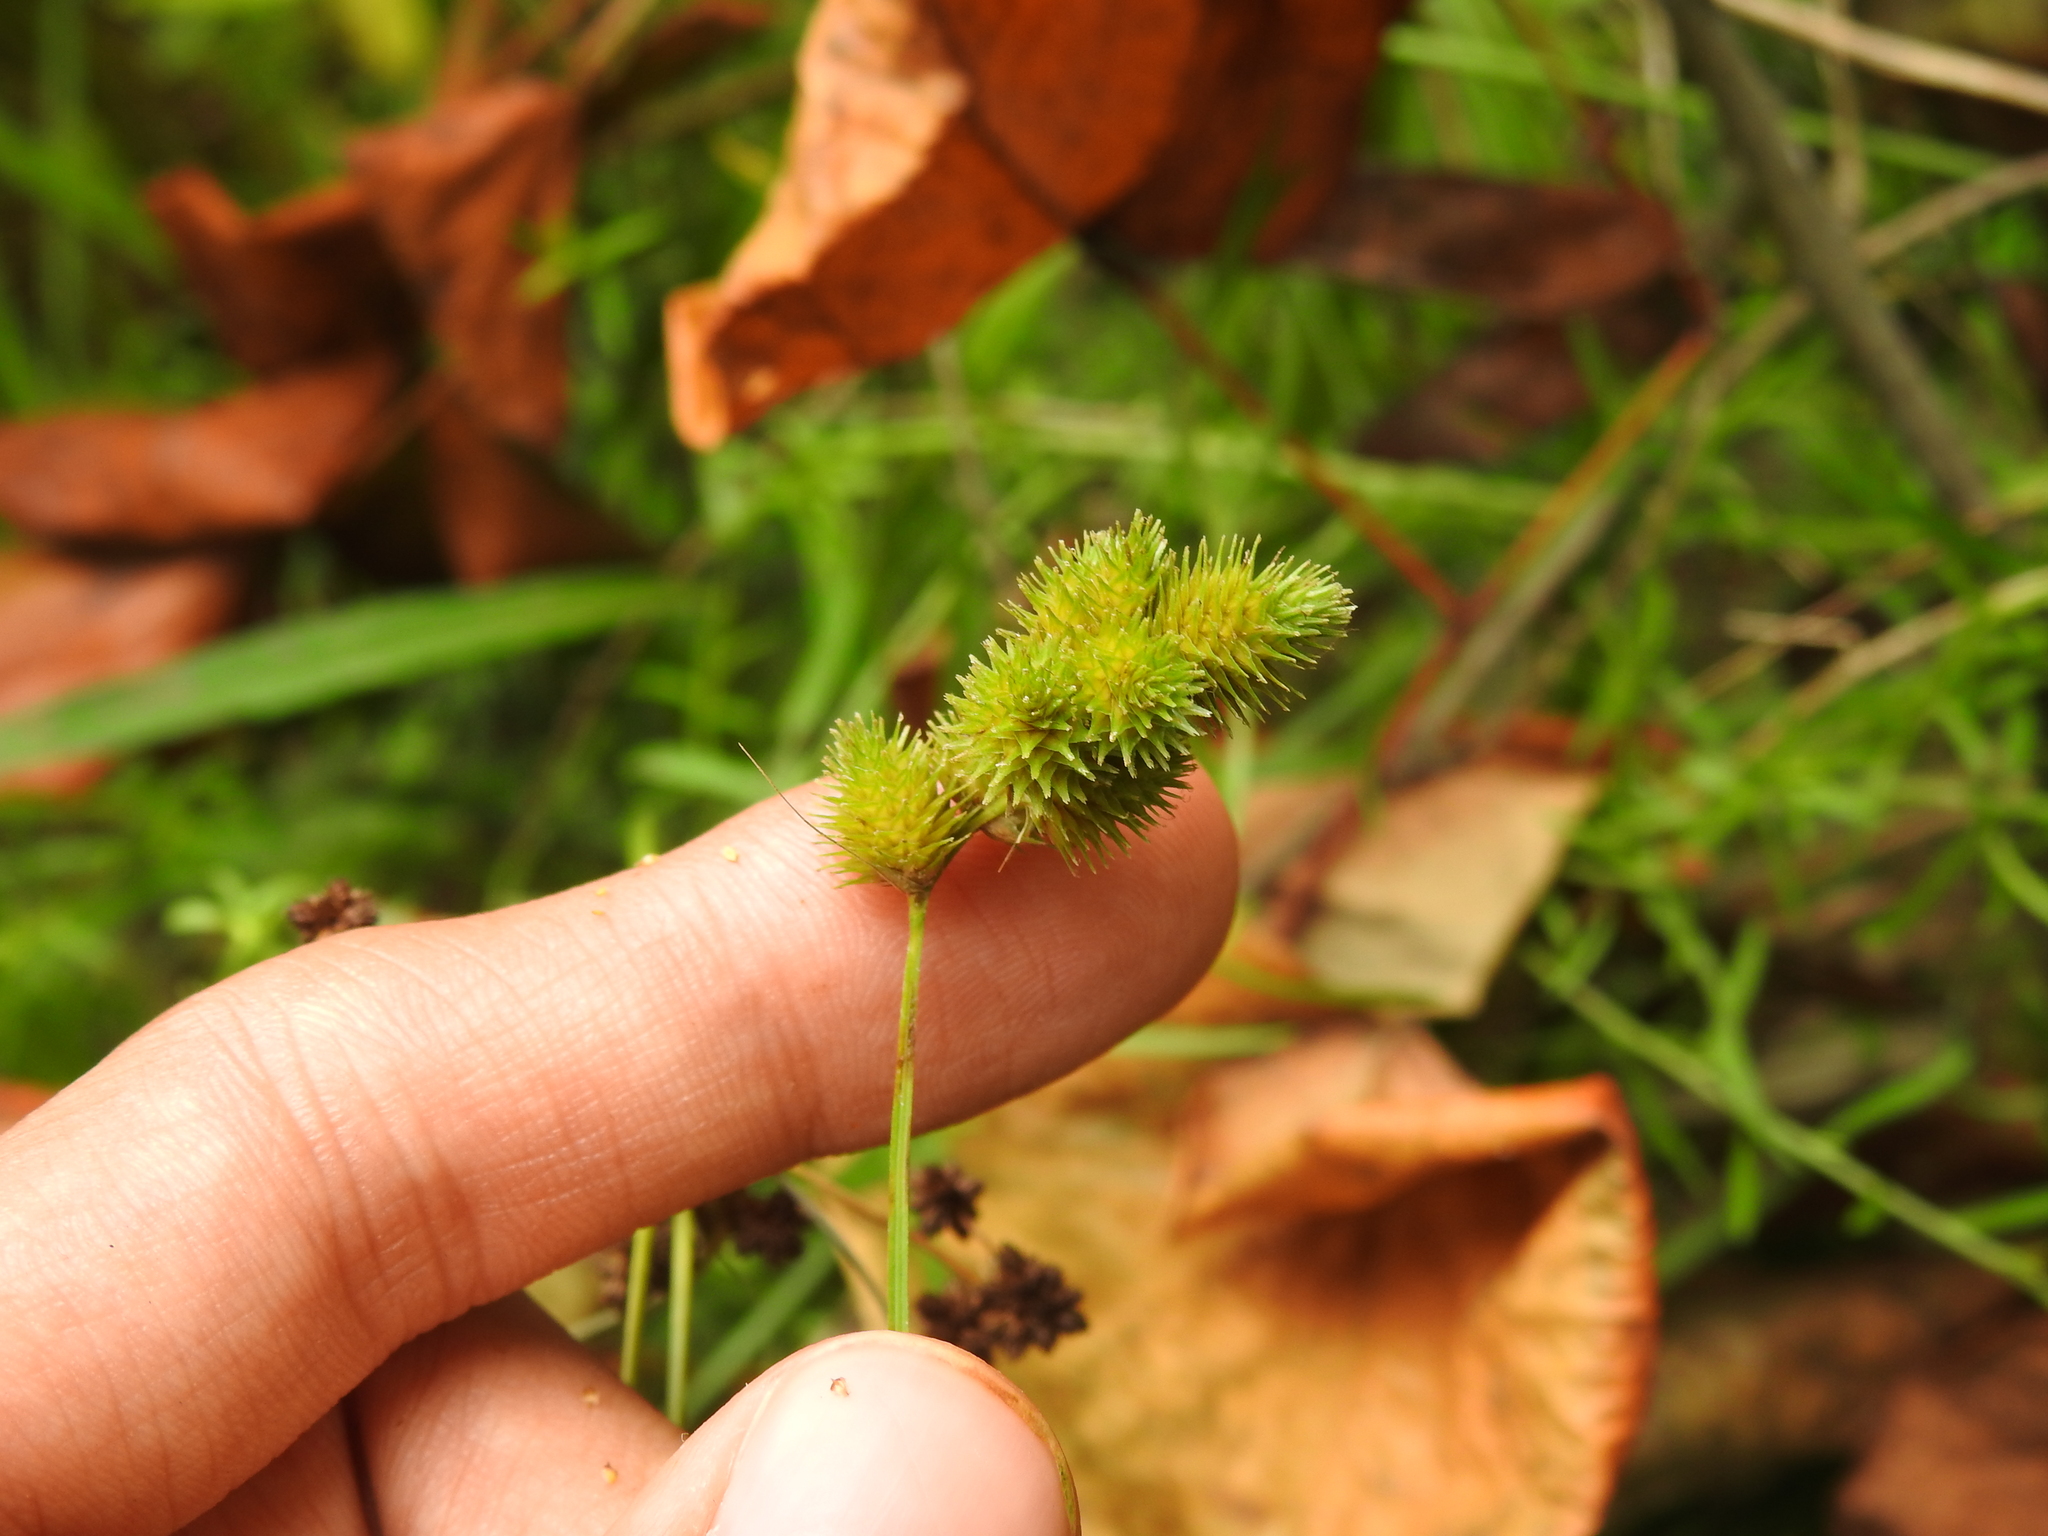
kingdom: Plantae
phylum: Tracheophyta
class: Liliopsida
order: Poales
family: Cyperaceae
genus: Carex
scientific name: Carex cristatella
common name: Crested oval sedge
